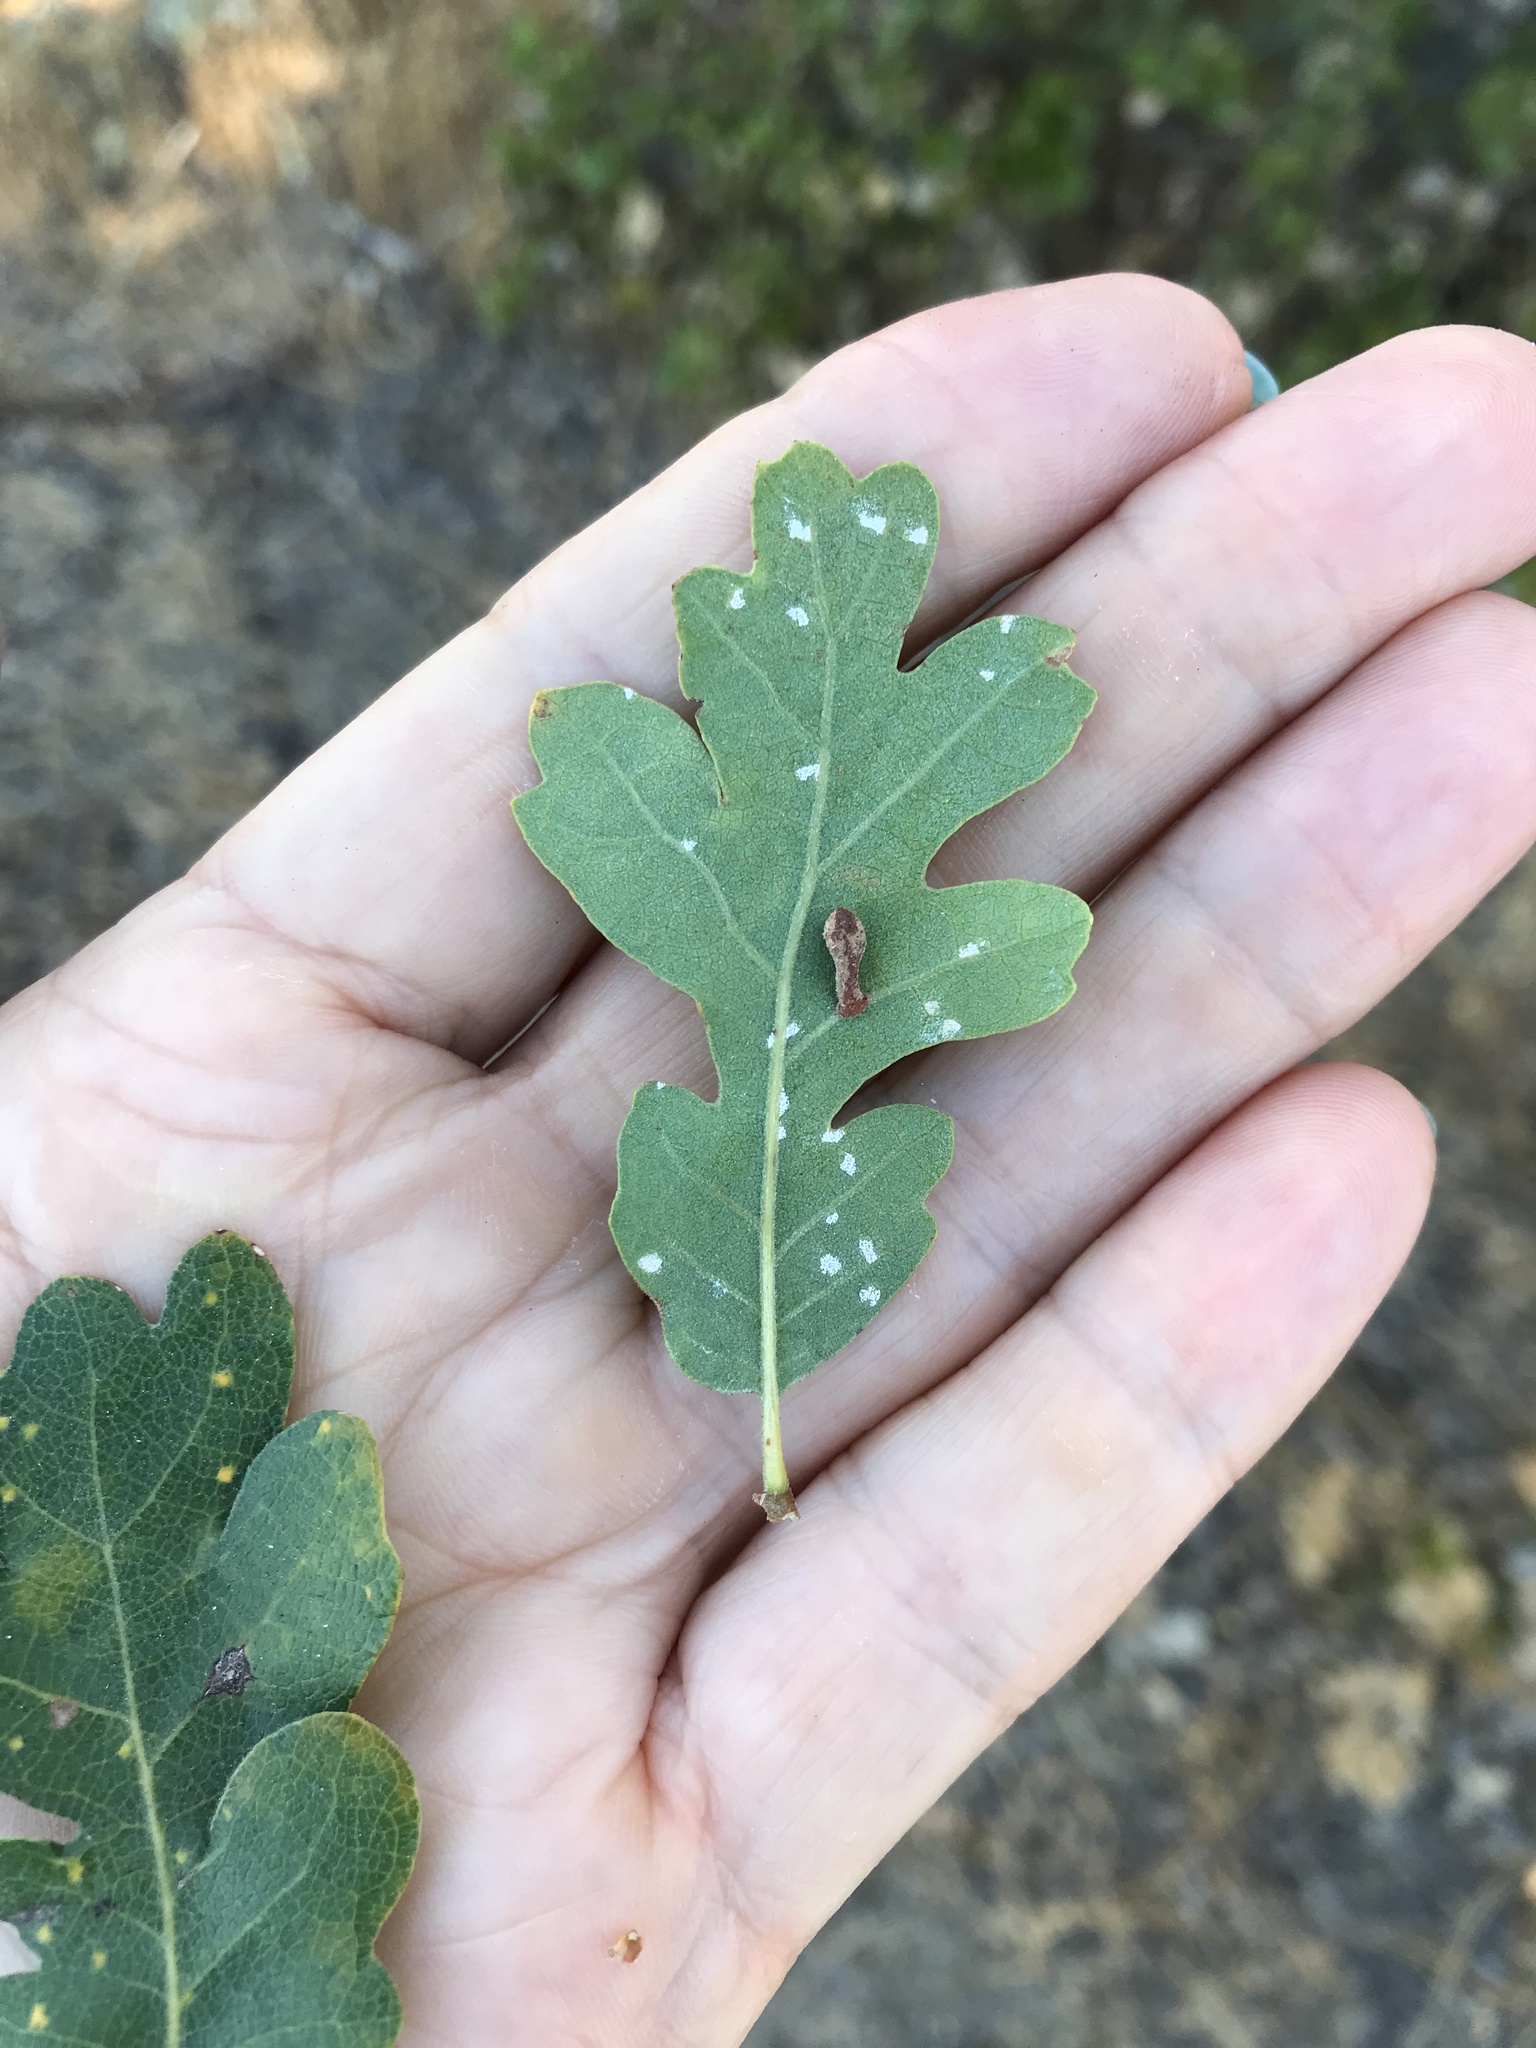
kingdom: Animalia
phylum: Arthropoda
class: Insecta
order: Hymenoptera
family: Cynipidae
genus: Atrusca
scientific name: Atrusca
